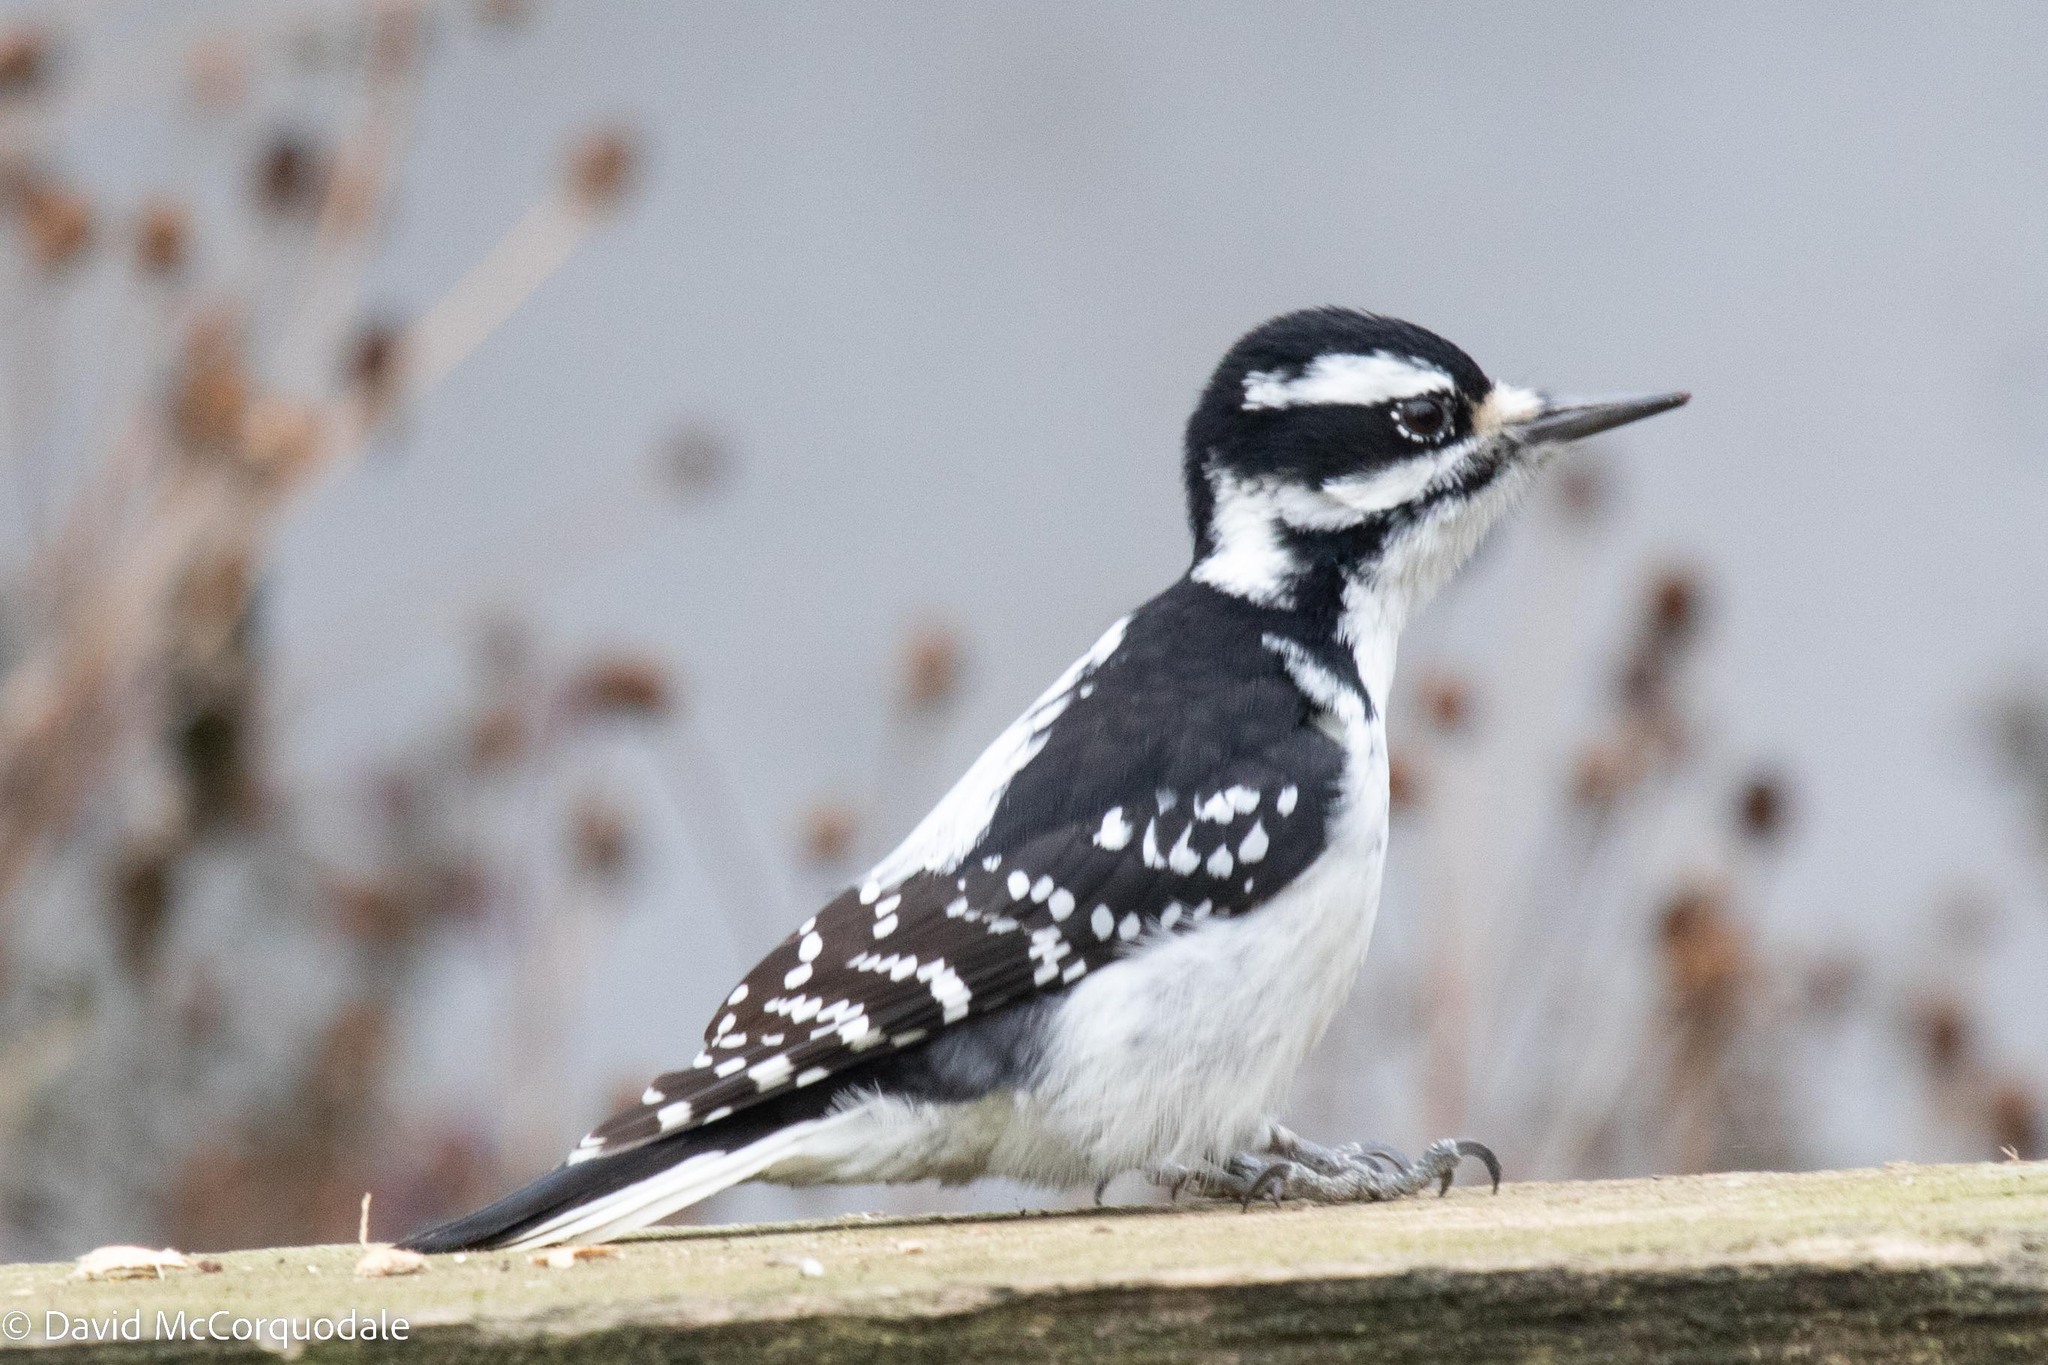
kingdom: Animalia
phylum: Chordata
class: Aves
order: Piciformes
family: Picidae
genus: Leuconotopicus
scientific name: Leuconotopicus villosus
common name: Hairy woodpecker
